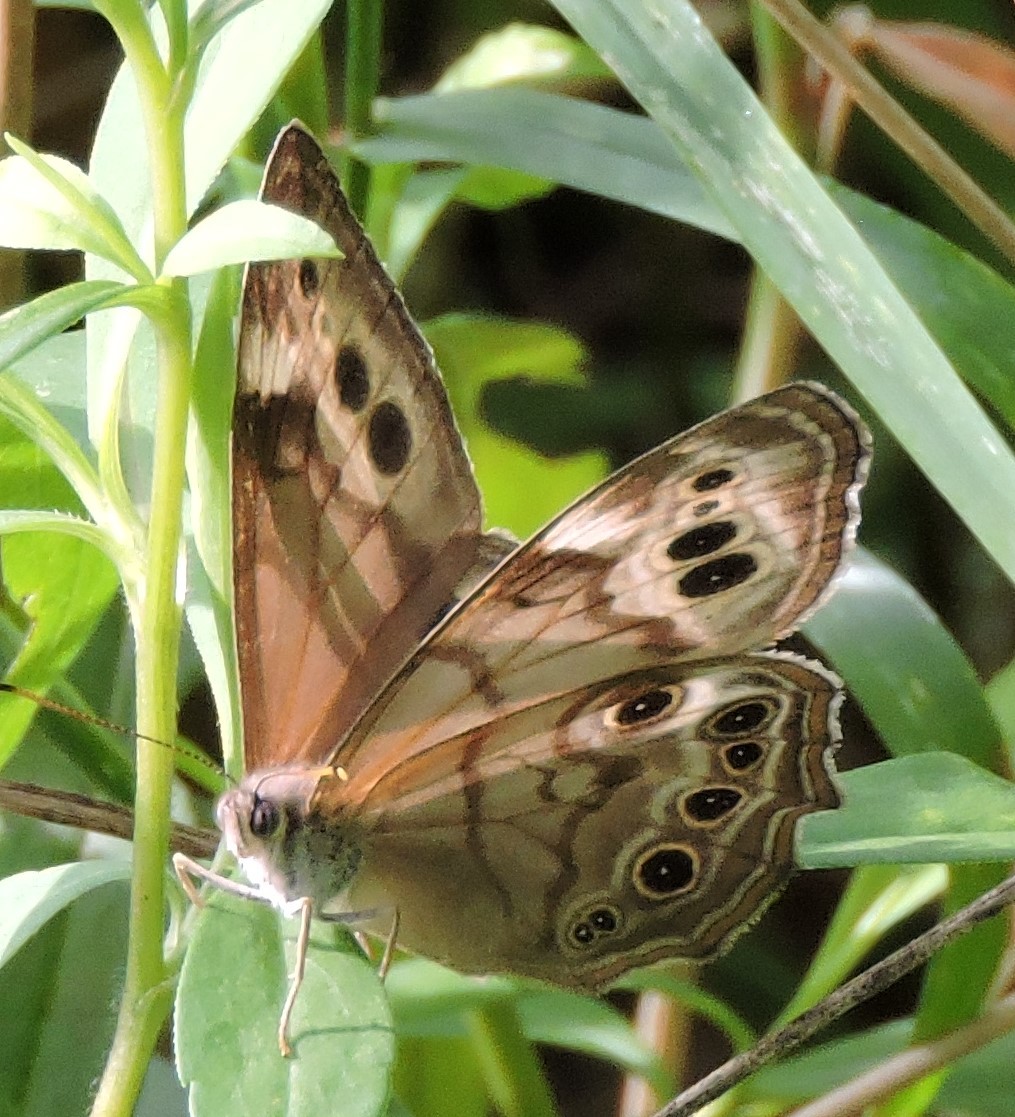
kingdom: Animalia
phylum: Arthropoda
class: Insecta
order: Lepidoptera
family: Nymphalidae
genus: Lethe
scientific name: Lethe anthedon
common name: Northern pearly-eye
